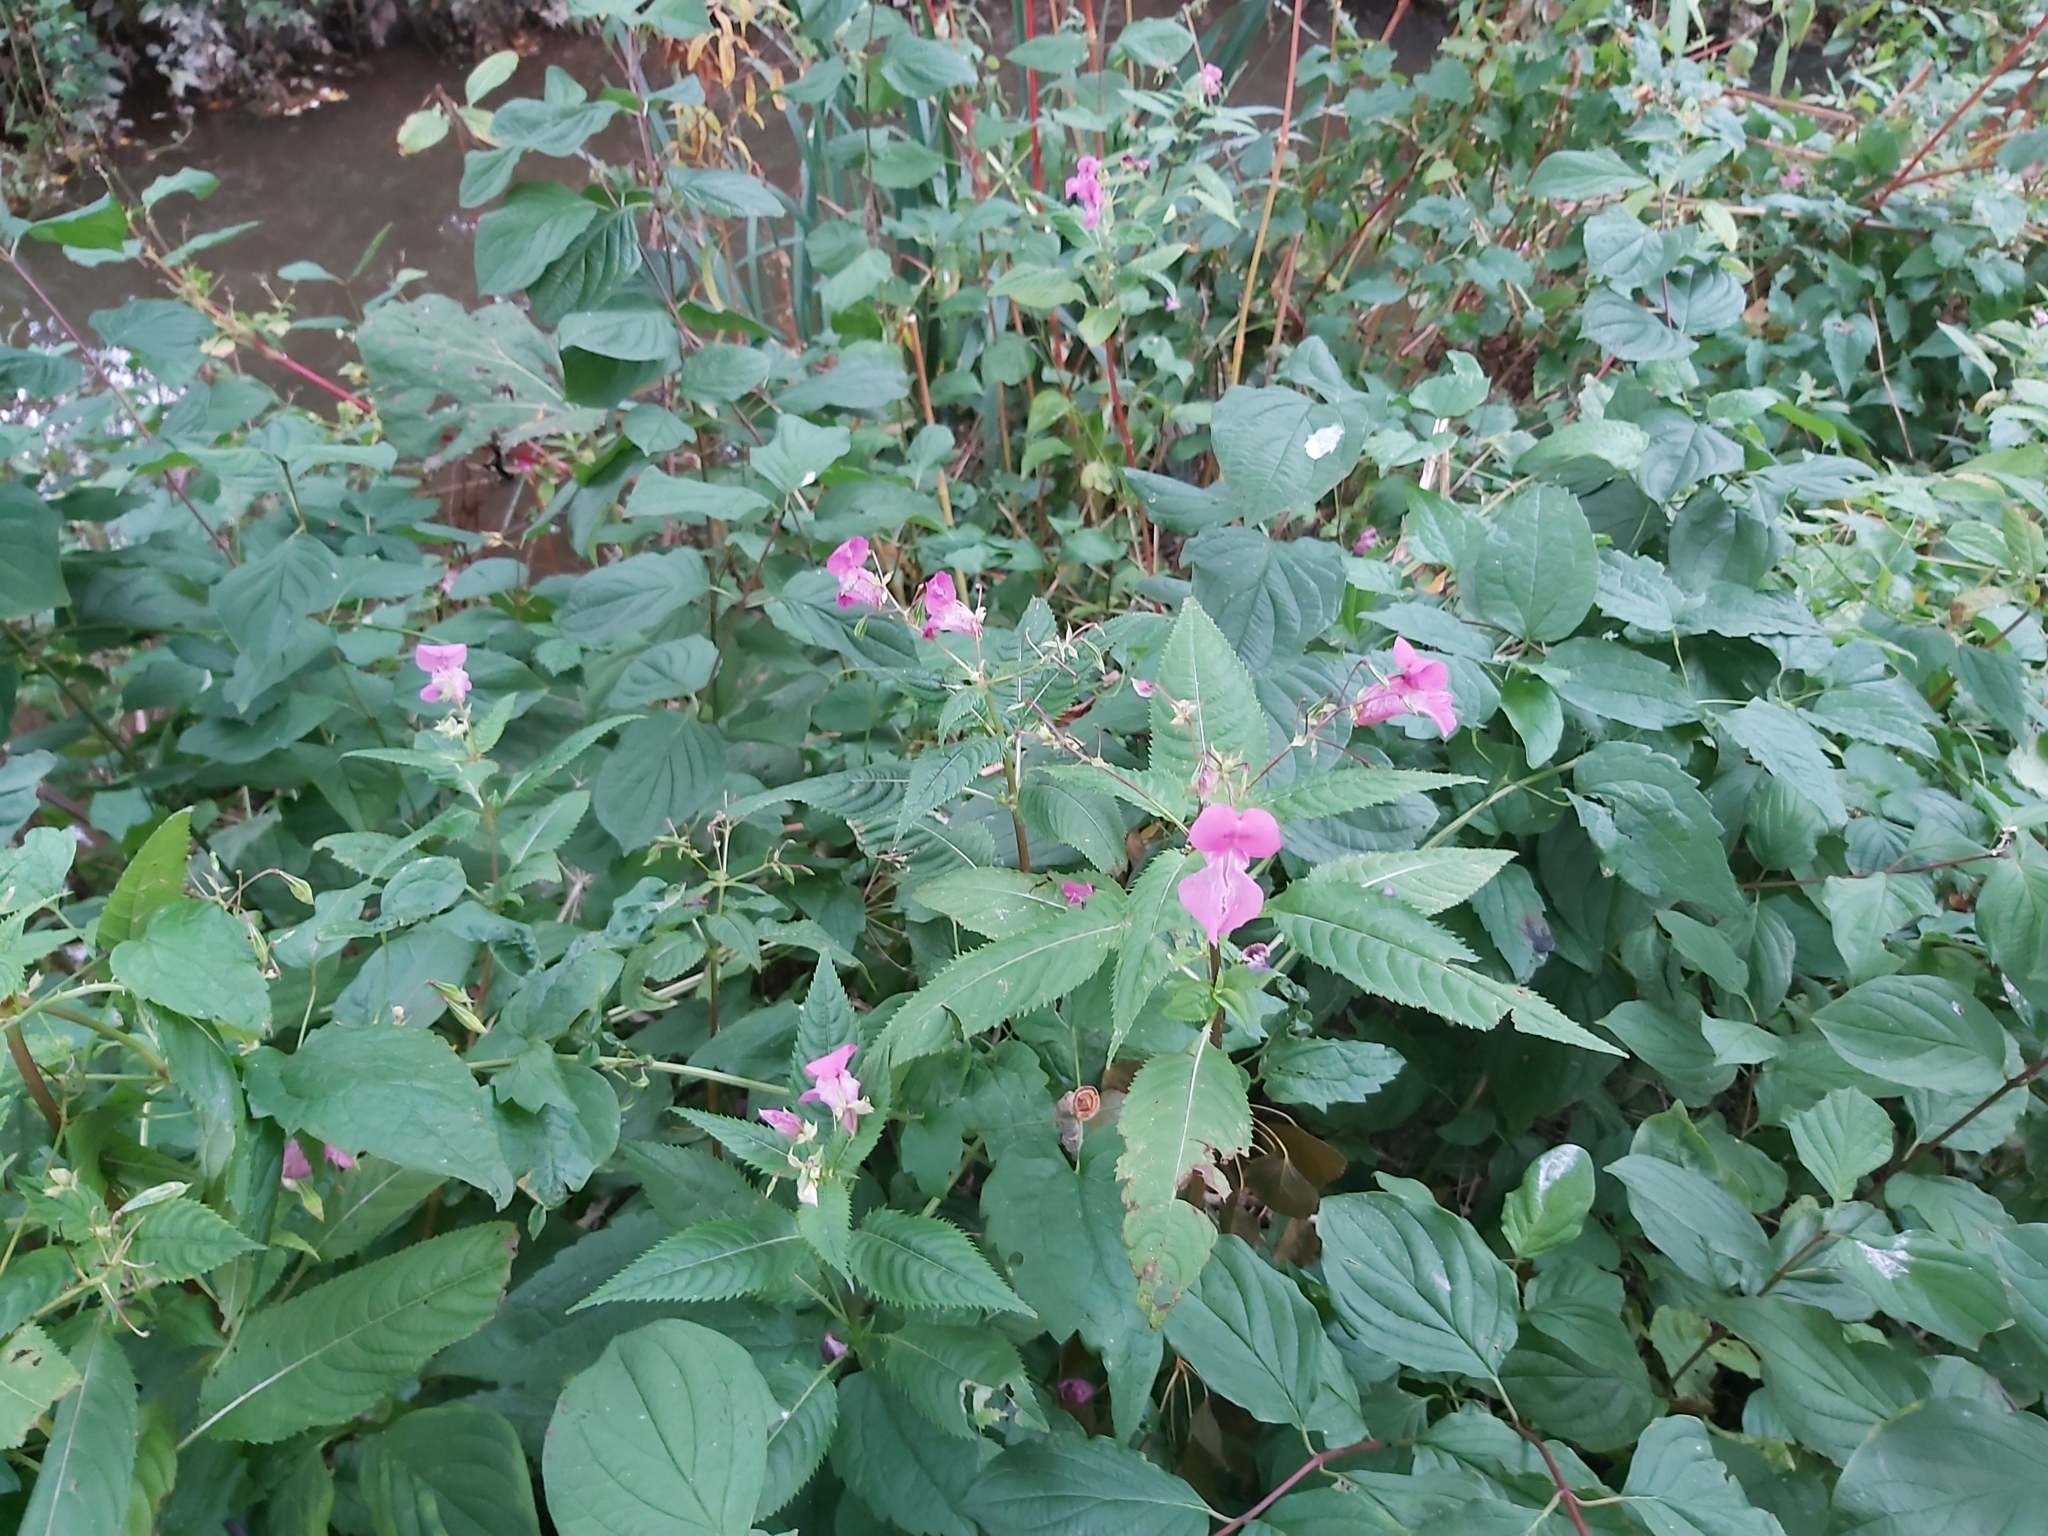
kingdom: Plantae
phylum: Tracheophyta
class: Magnoliopsida
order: Ericales
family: Balsaminaceae
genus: Impatiens
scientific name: Impatiens glandulifera
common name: Himalayan balsam
